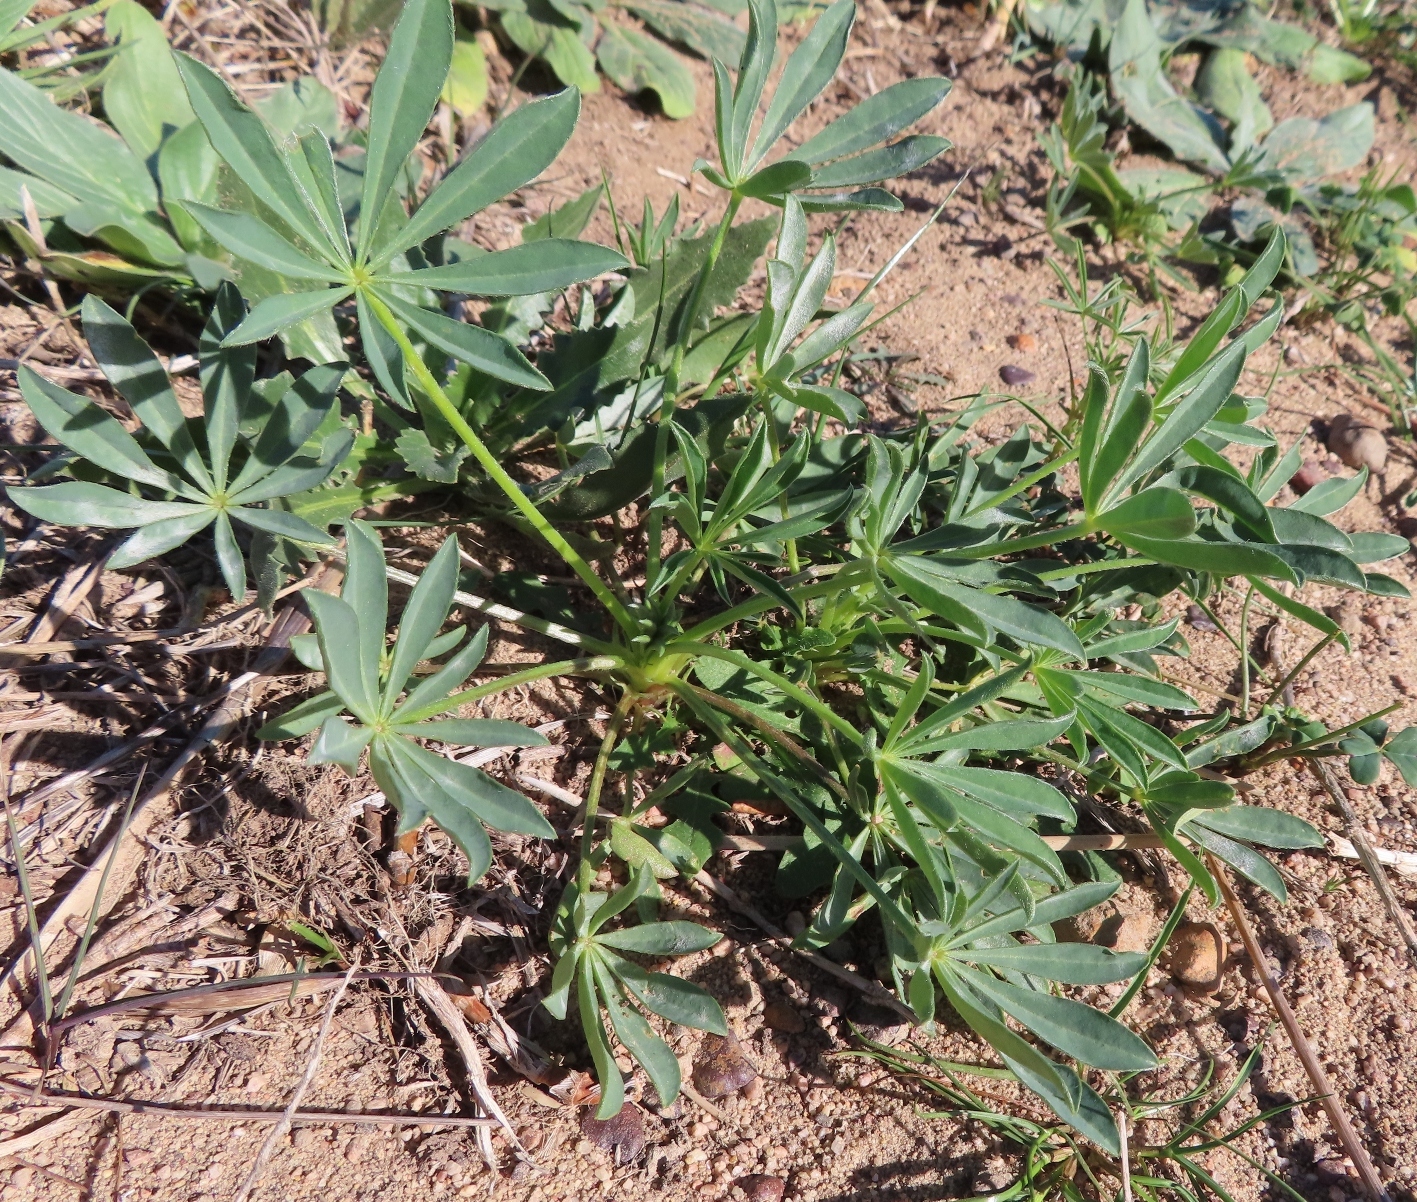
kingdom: Plantae
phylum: Tracheophyta
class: Magnoliopsida
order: Fabales
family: Fabaceae
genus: Lupinus
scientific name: Lupinus luteus
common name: European yellow lupine
